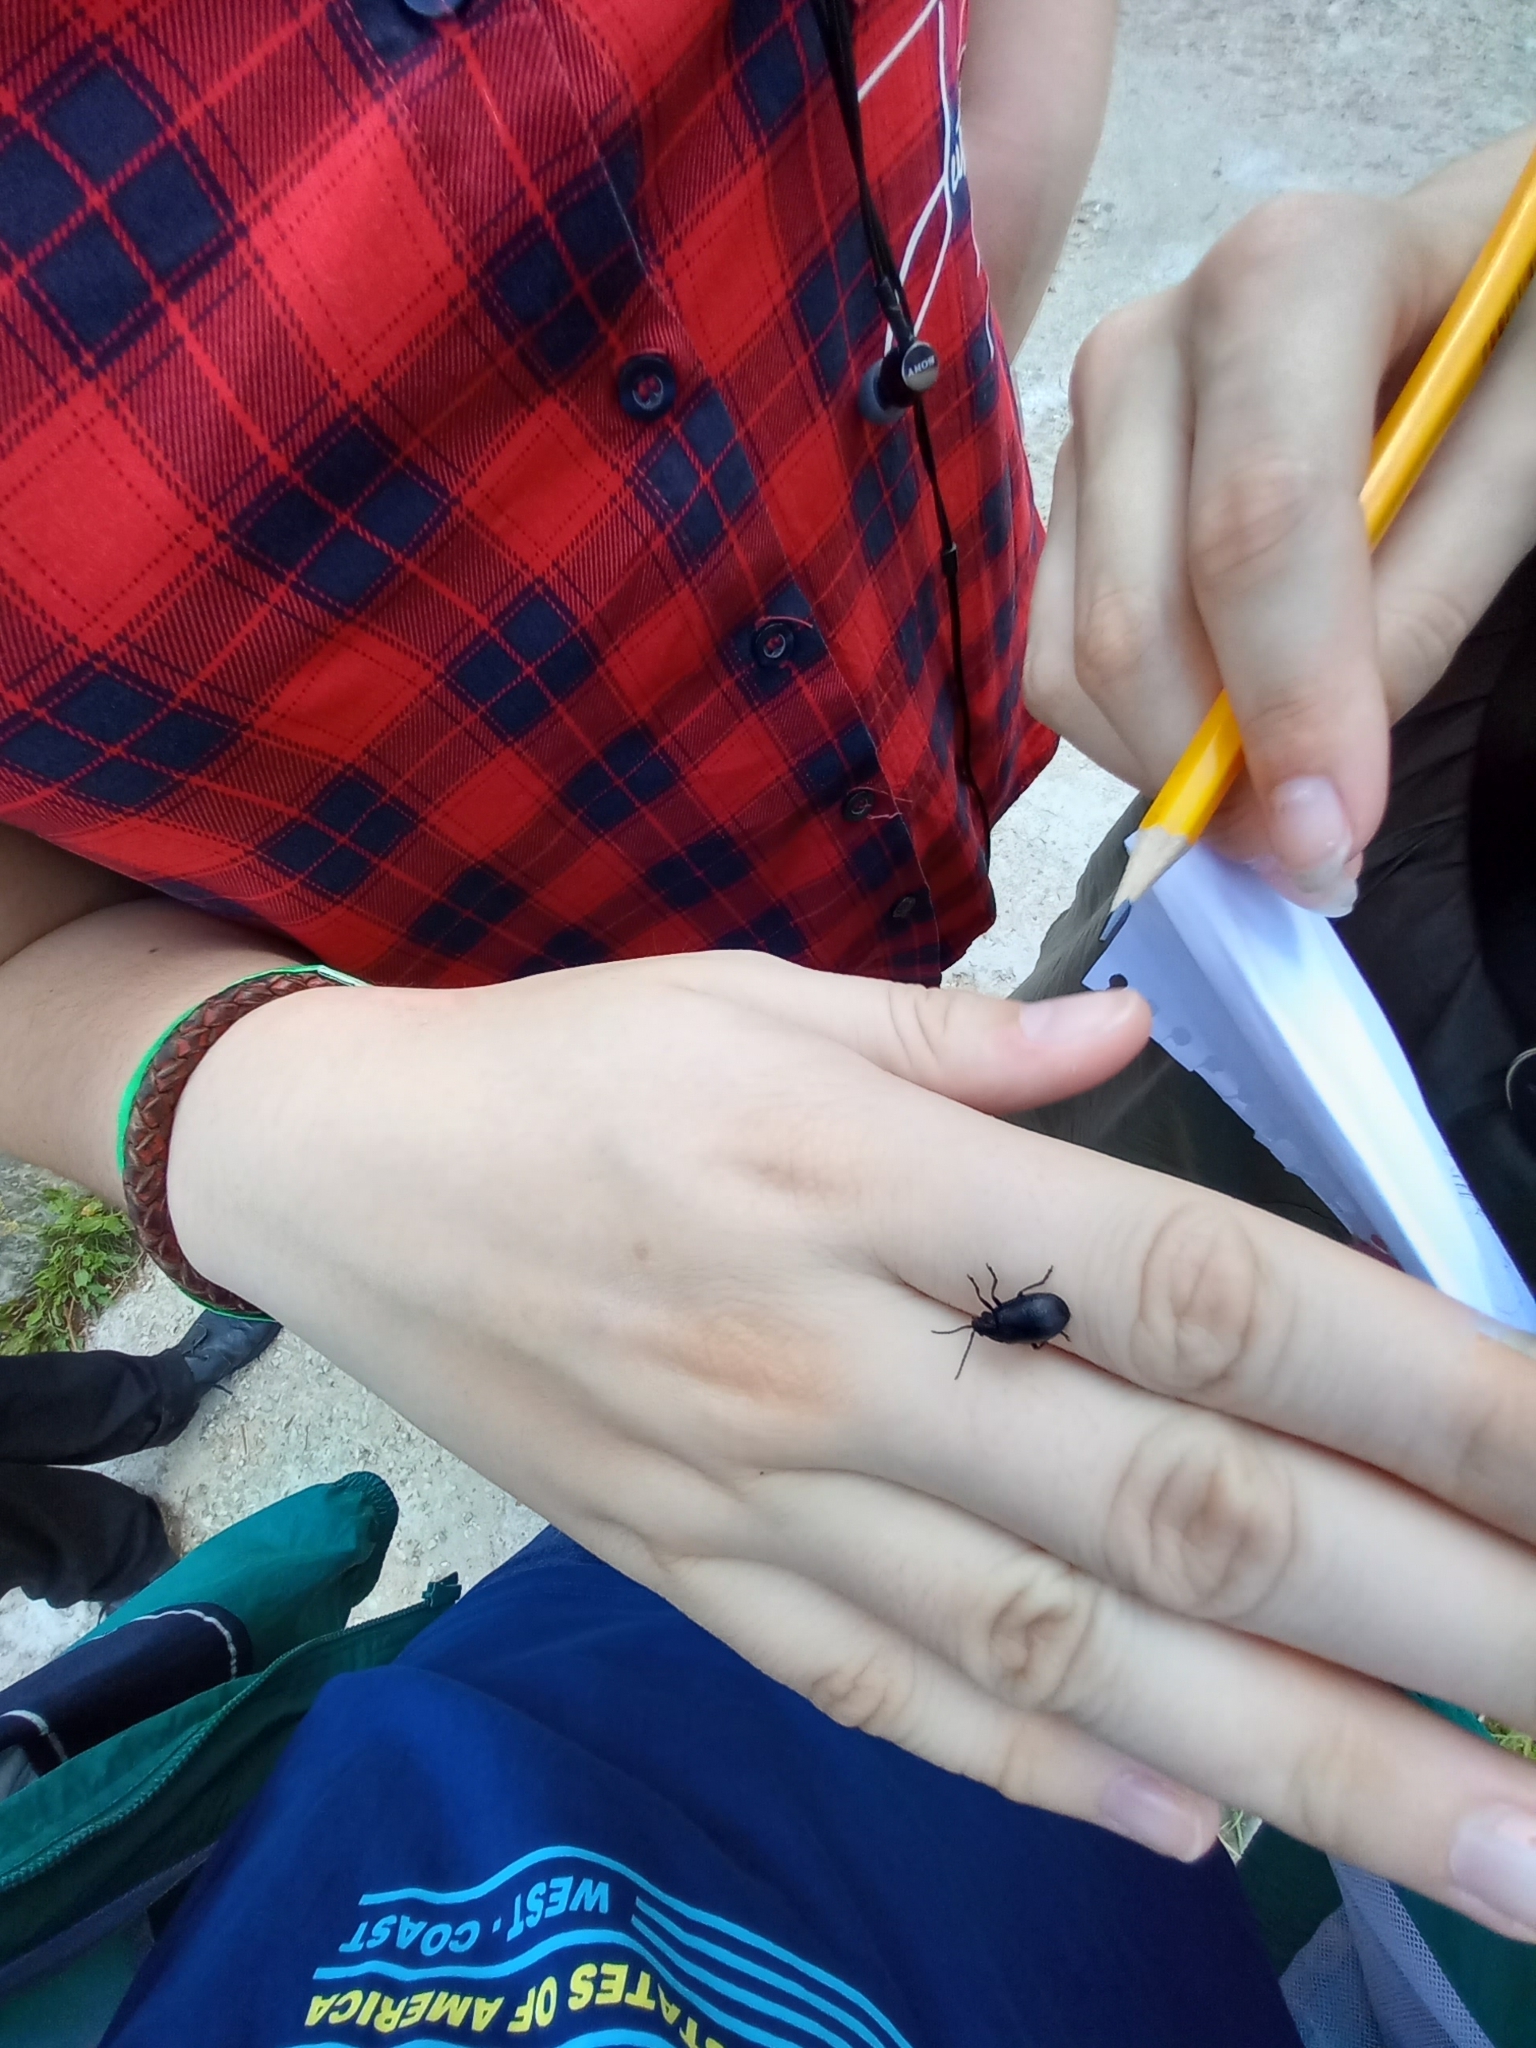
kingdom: Animalia
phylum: Arthropoda
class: Insecta
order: Coleoptera
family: Chrysomelidae
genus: Agelastica
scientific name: Agelastica alni
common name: Alder leaf beetle
